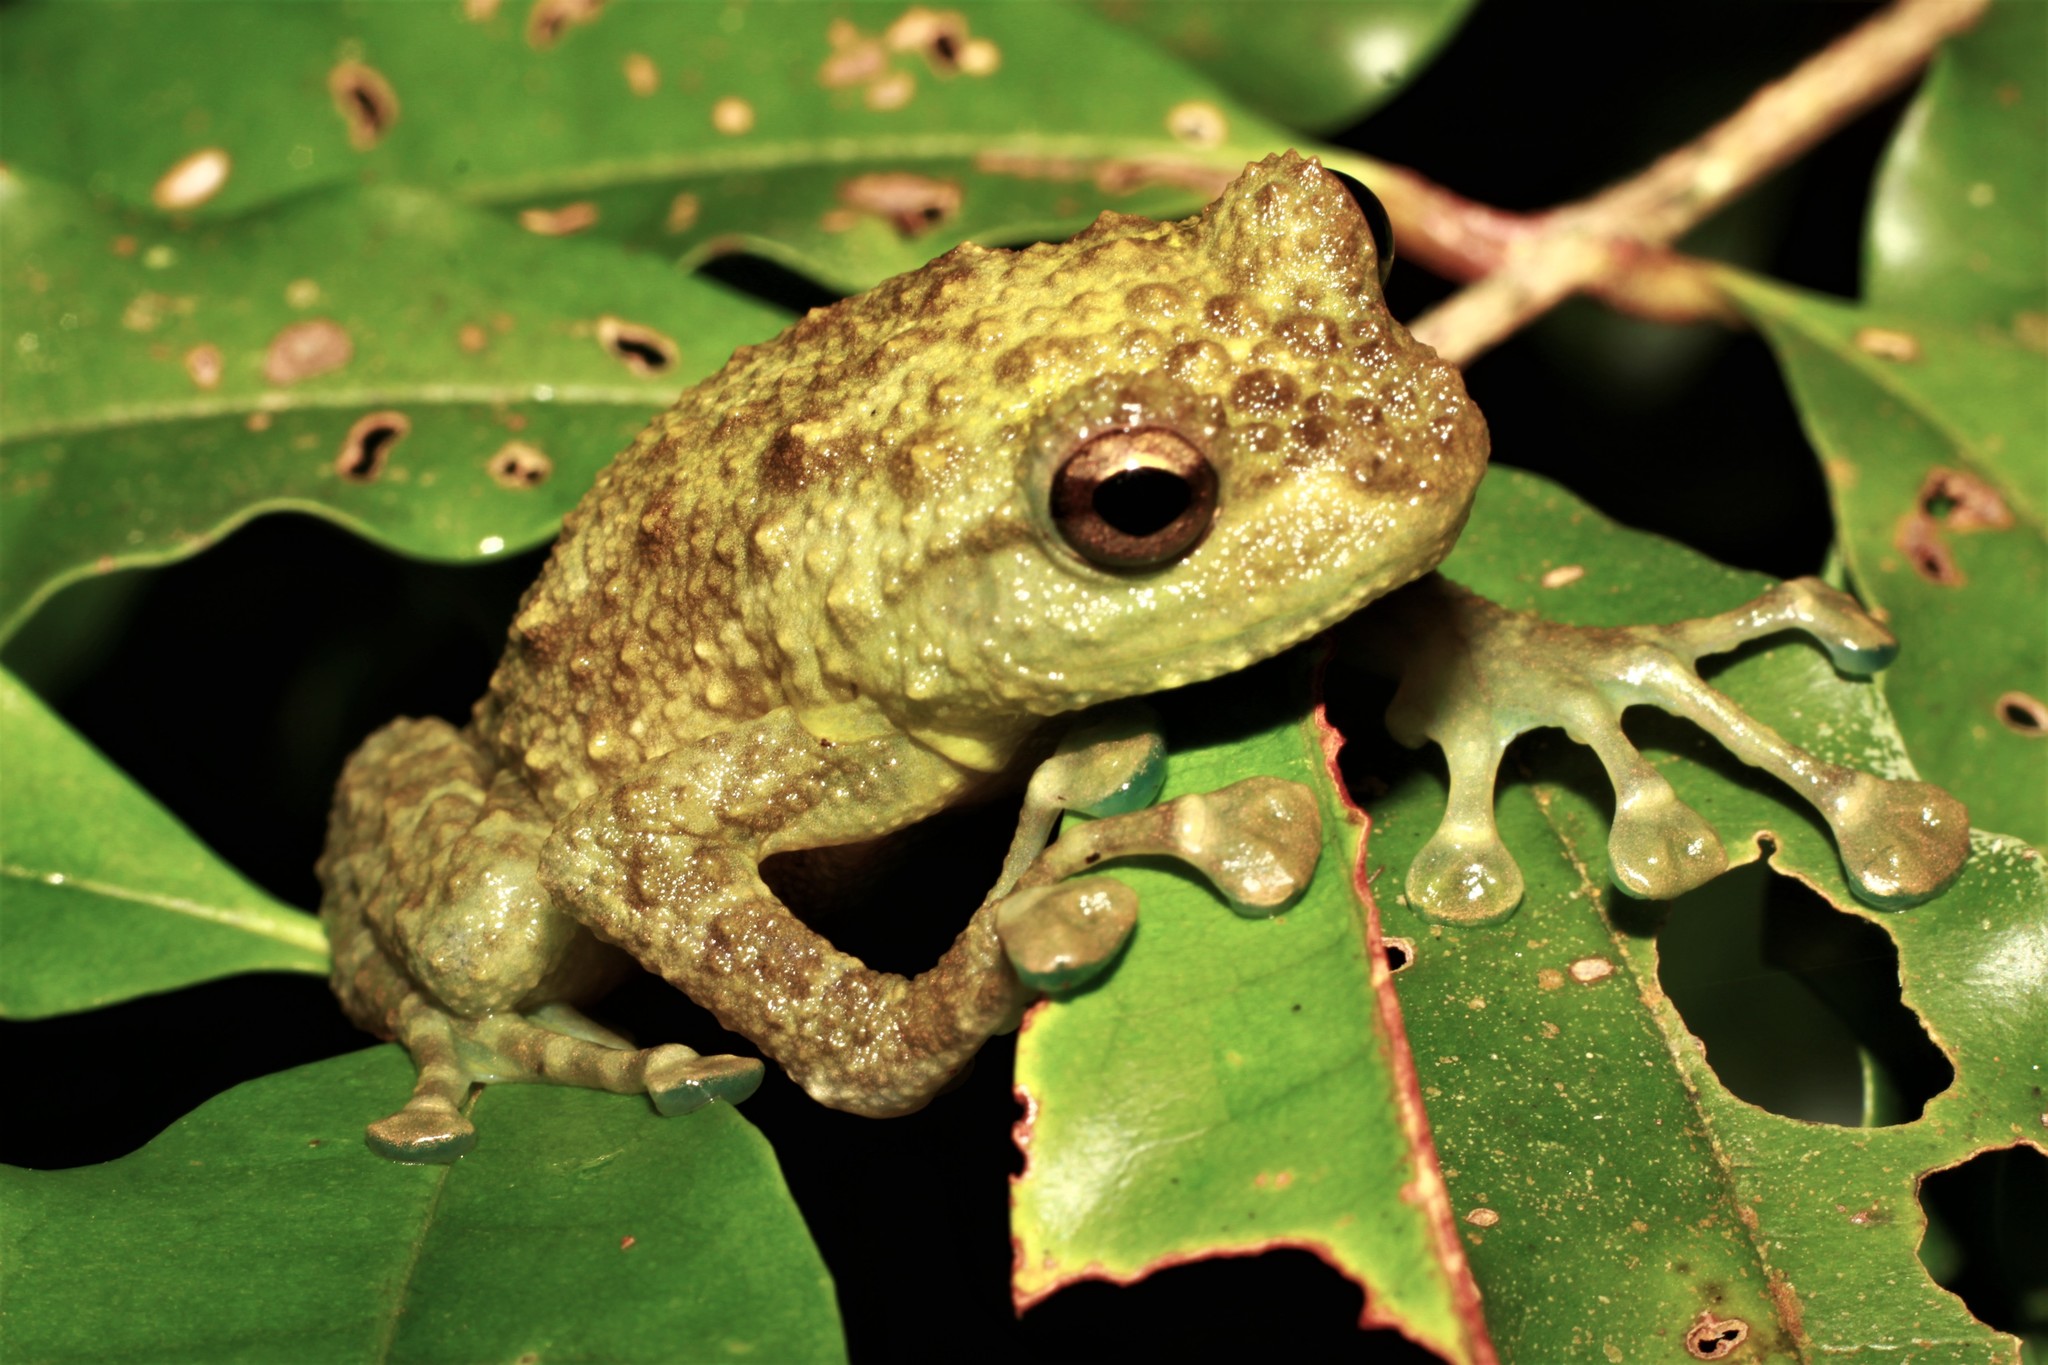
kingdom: Animalia
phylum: Chordata
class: Amphibia
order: Anura
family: Microhylidae
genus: Cophyla
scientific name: Cophyla grandis
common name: Boulenger's giant treefrog
